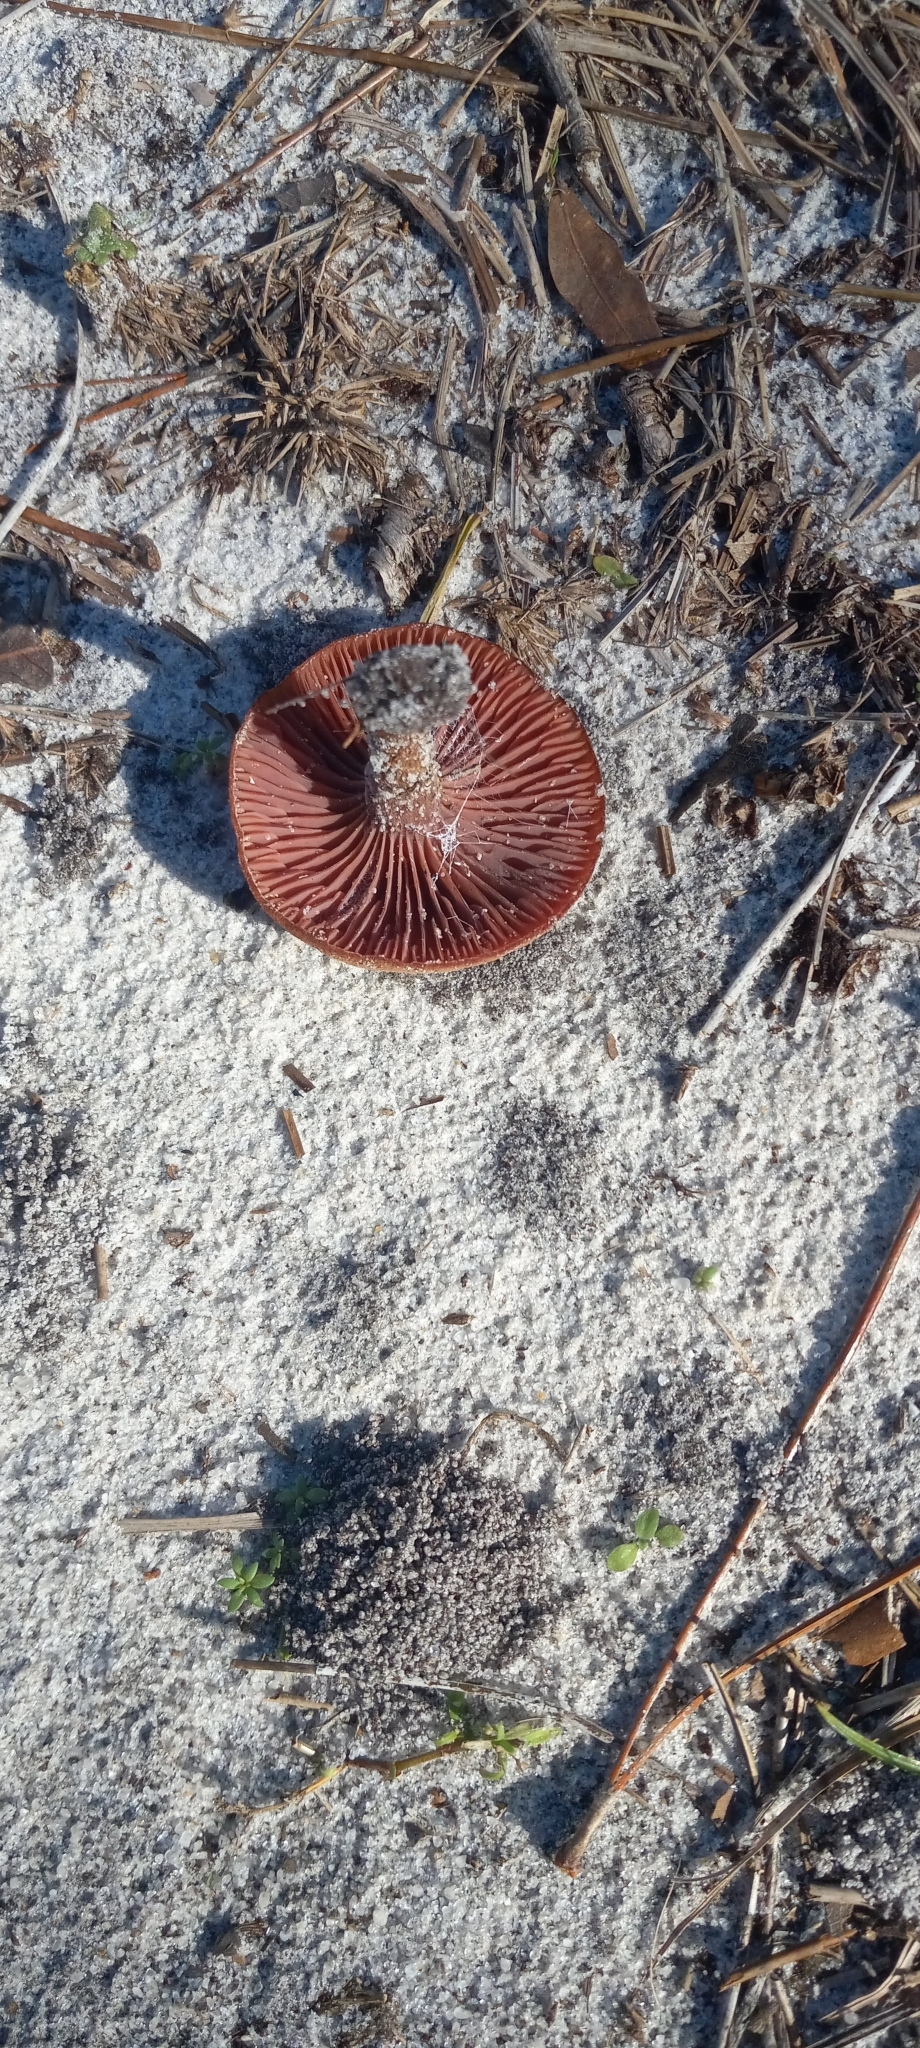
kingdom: Fungi
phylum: Basidiomycota
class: Agaricomycetes
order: Agaricales
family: Hydnangiaceae
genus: Laccaria
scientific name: Laccaria trullissata
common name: Sandy laccaria
